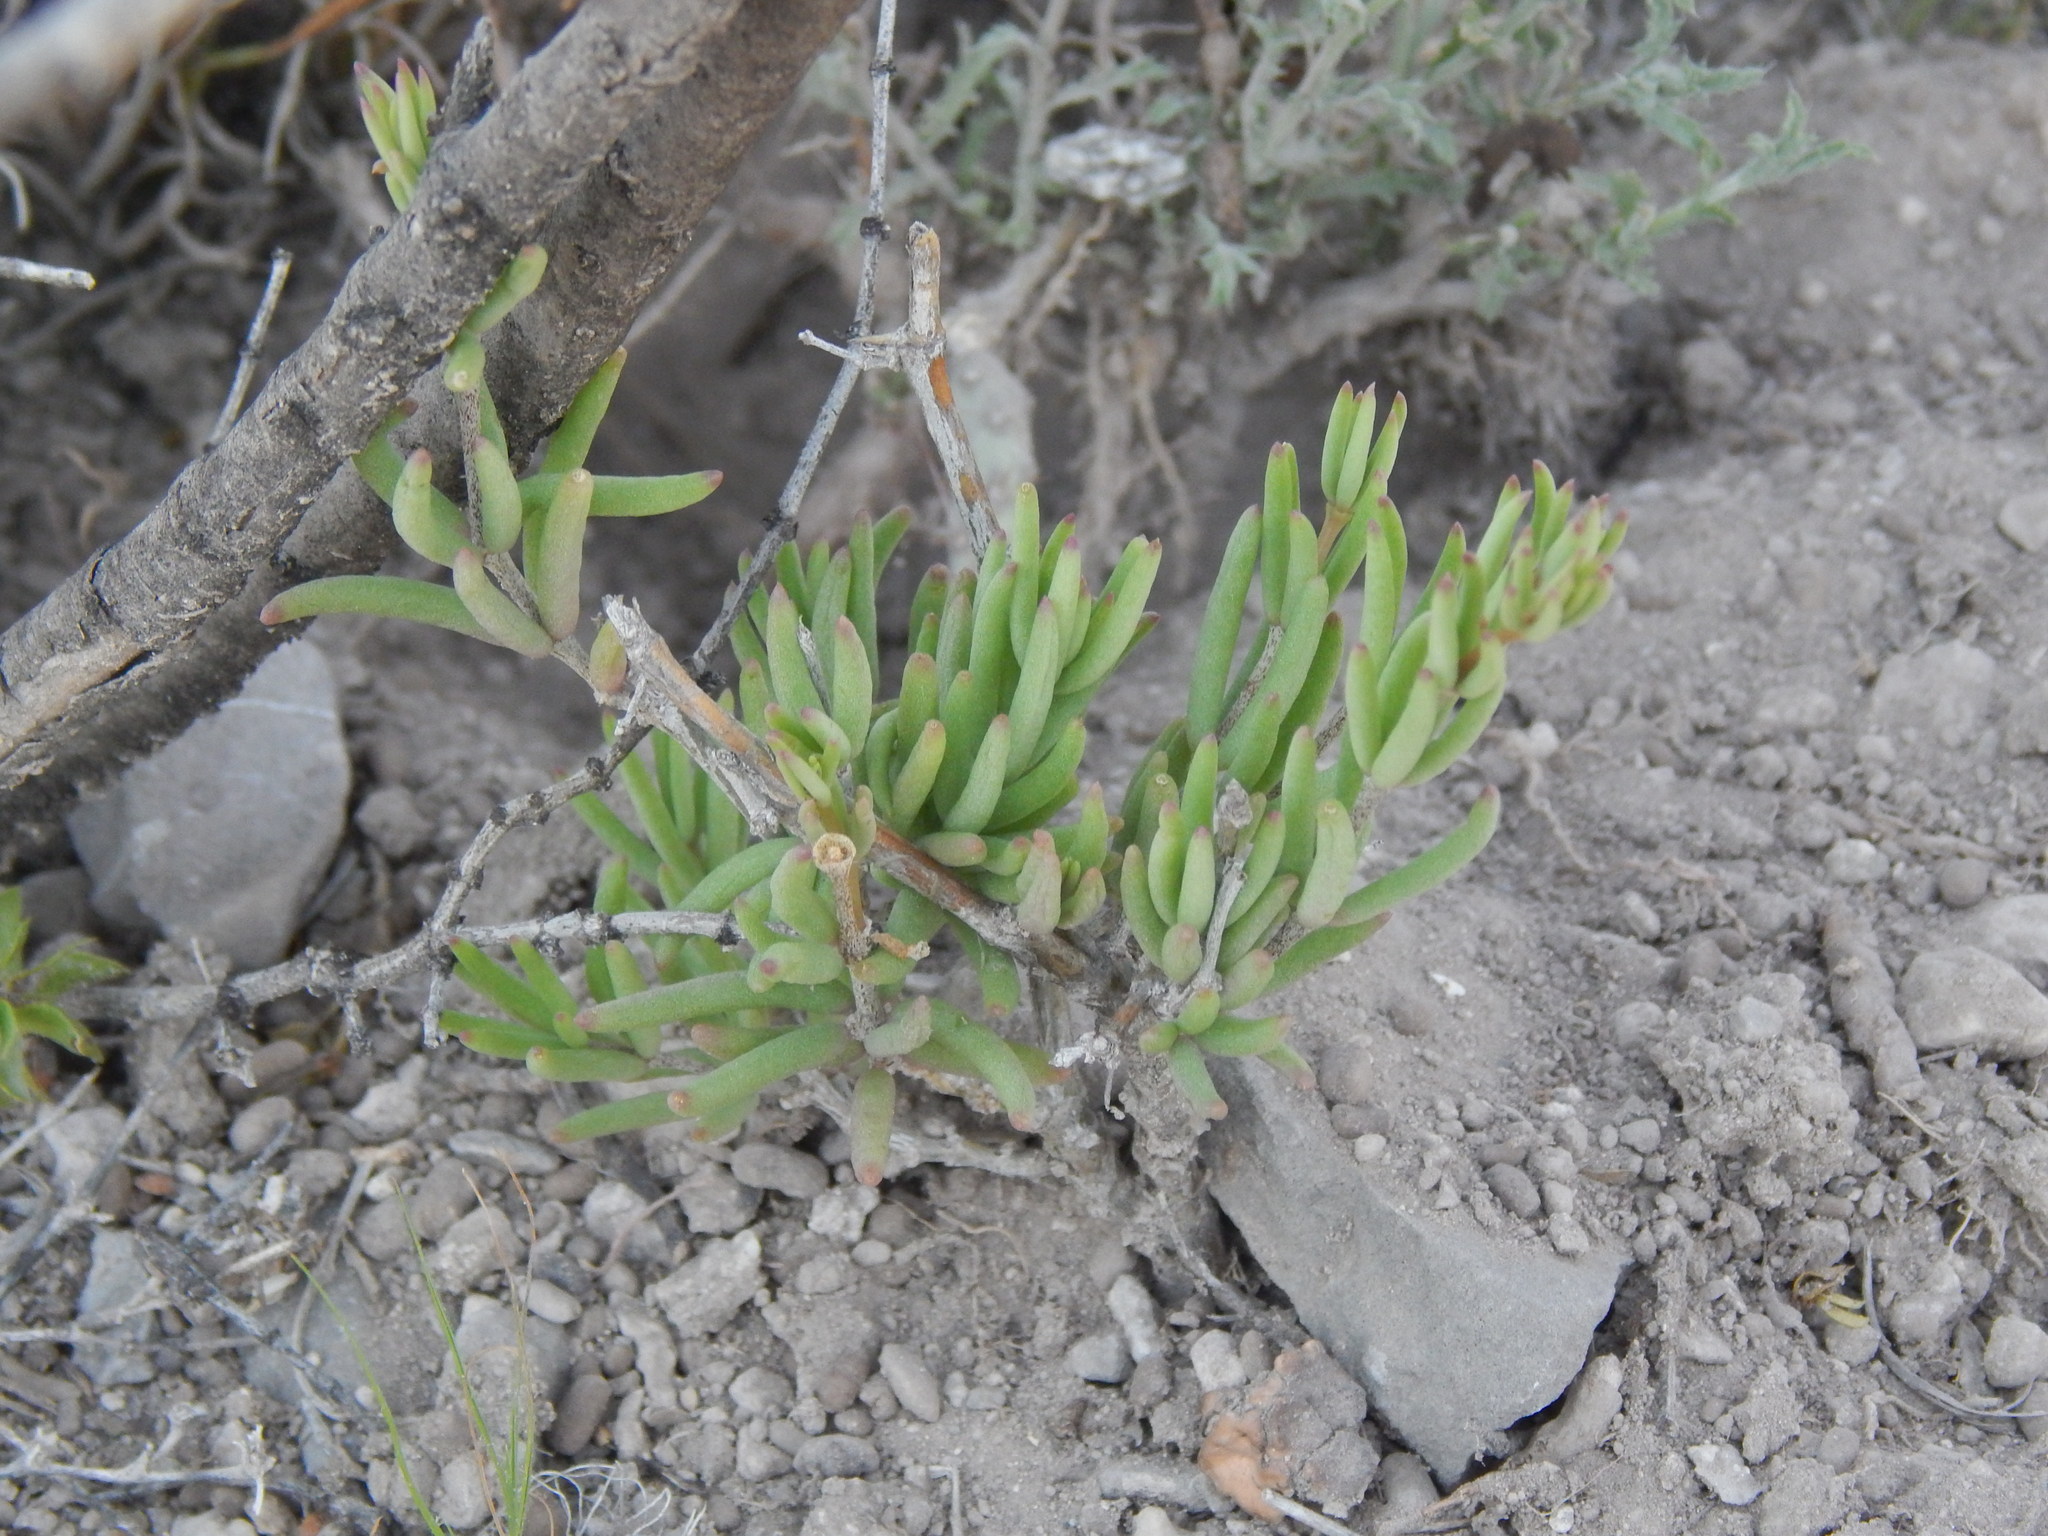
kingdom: Plantae
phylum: Tracheophyta
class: Magnoliopsida
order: Caryophyllales
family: Anacampserotaceae
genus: Grahamia
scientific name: Grahamia frutescens
